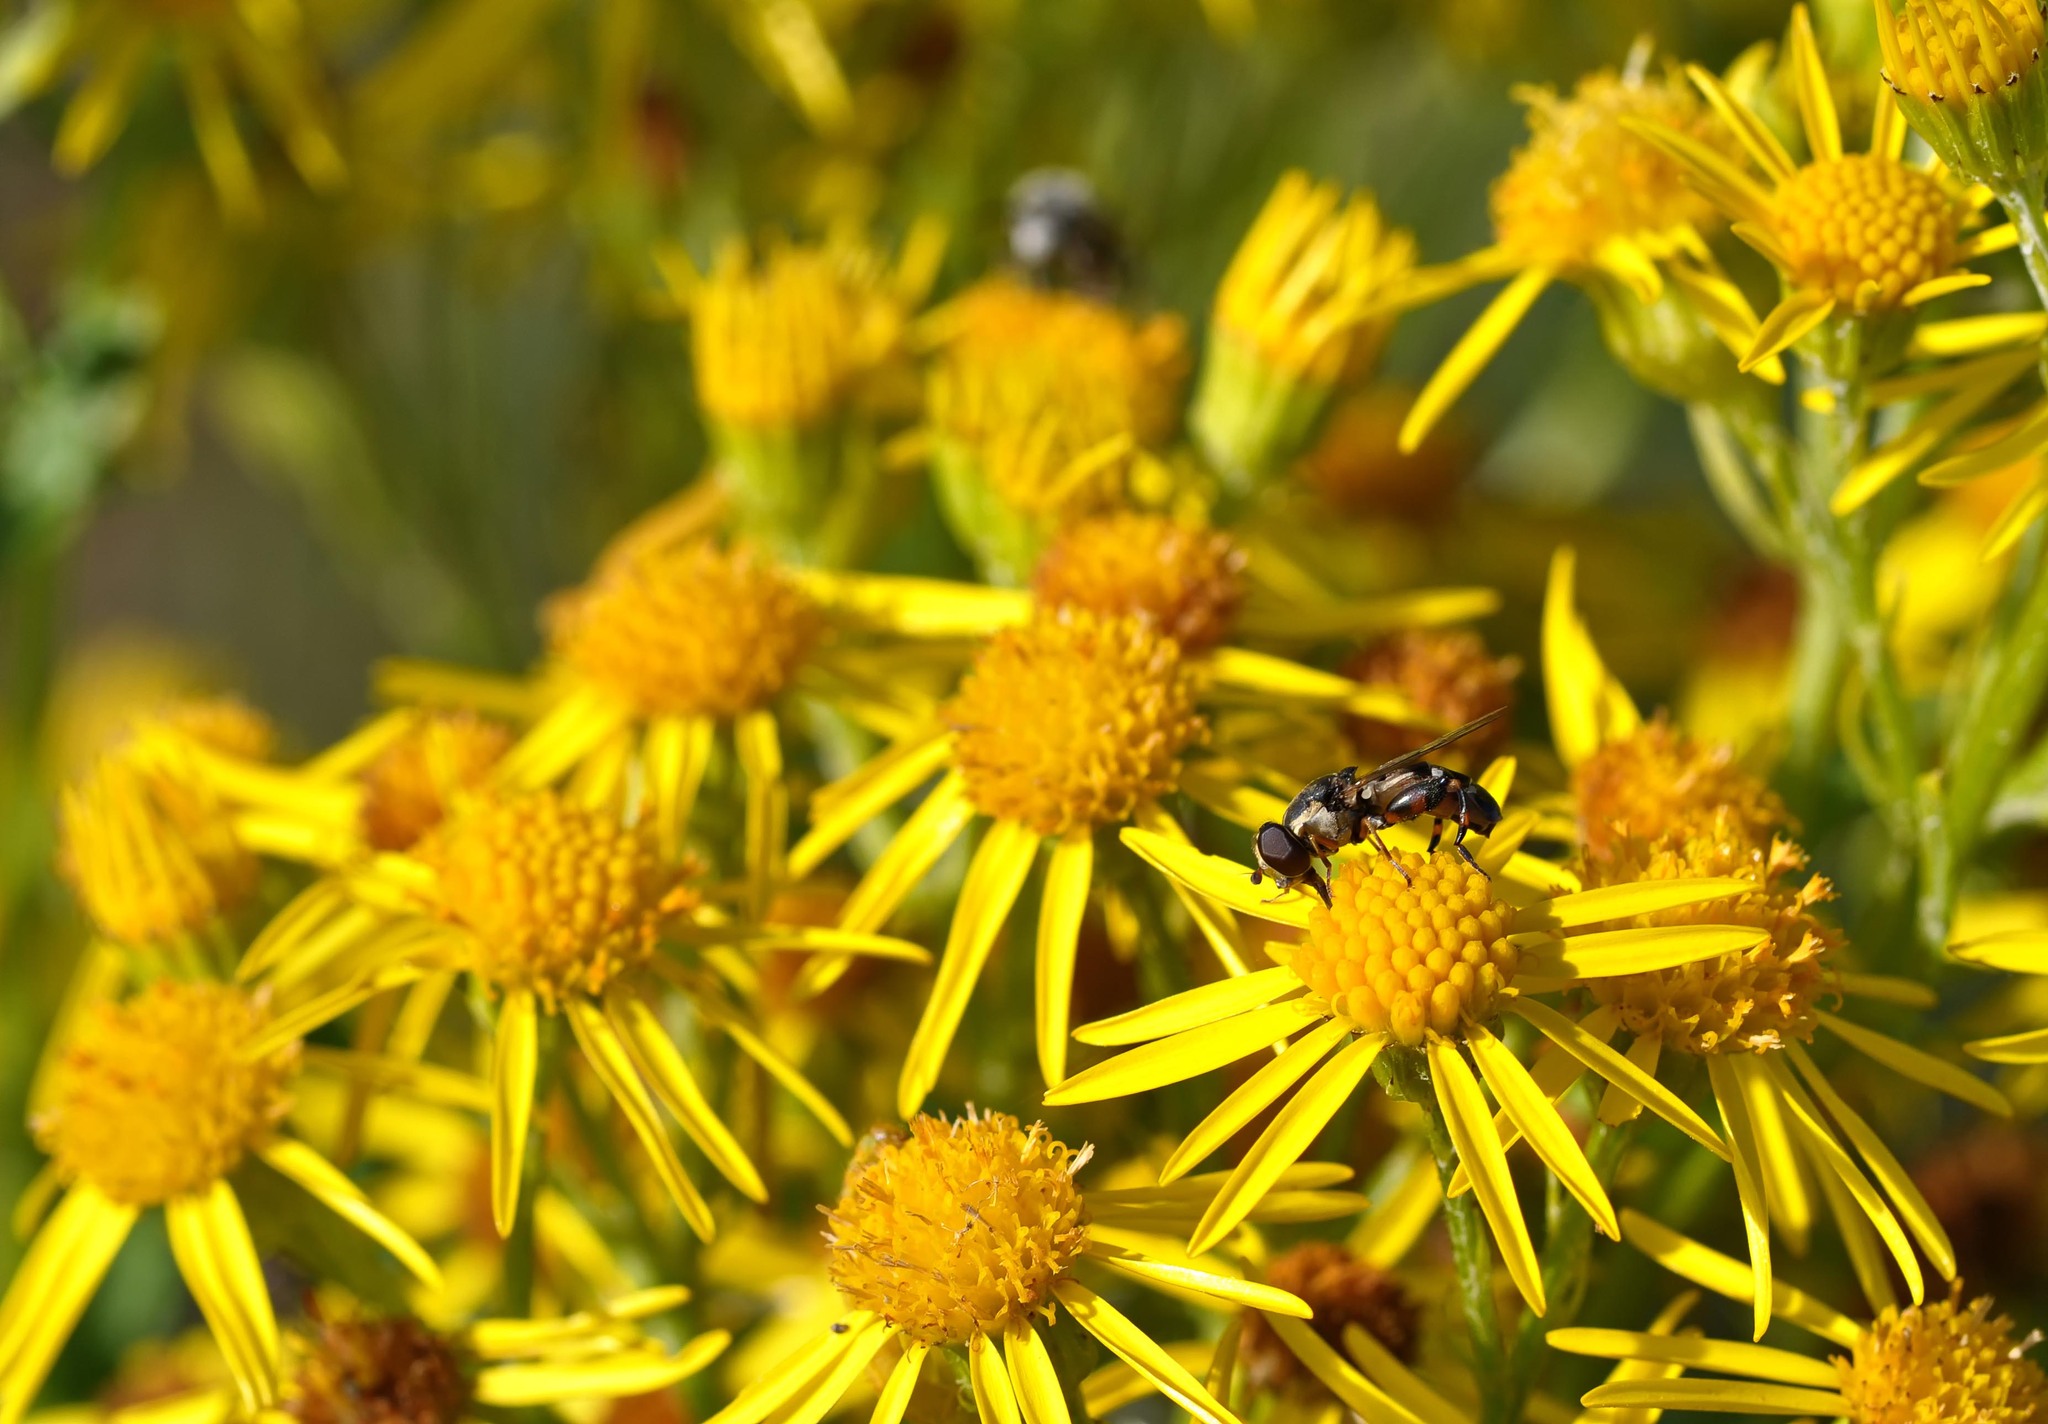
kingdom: Animalia
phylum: Arthropoda
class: Insecta
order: Diptera
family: Syrphidae
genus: Syritta
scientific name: Syritta pipiens
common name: Hover fly
